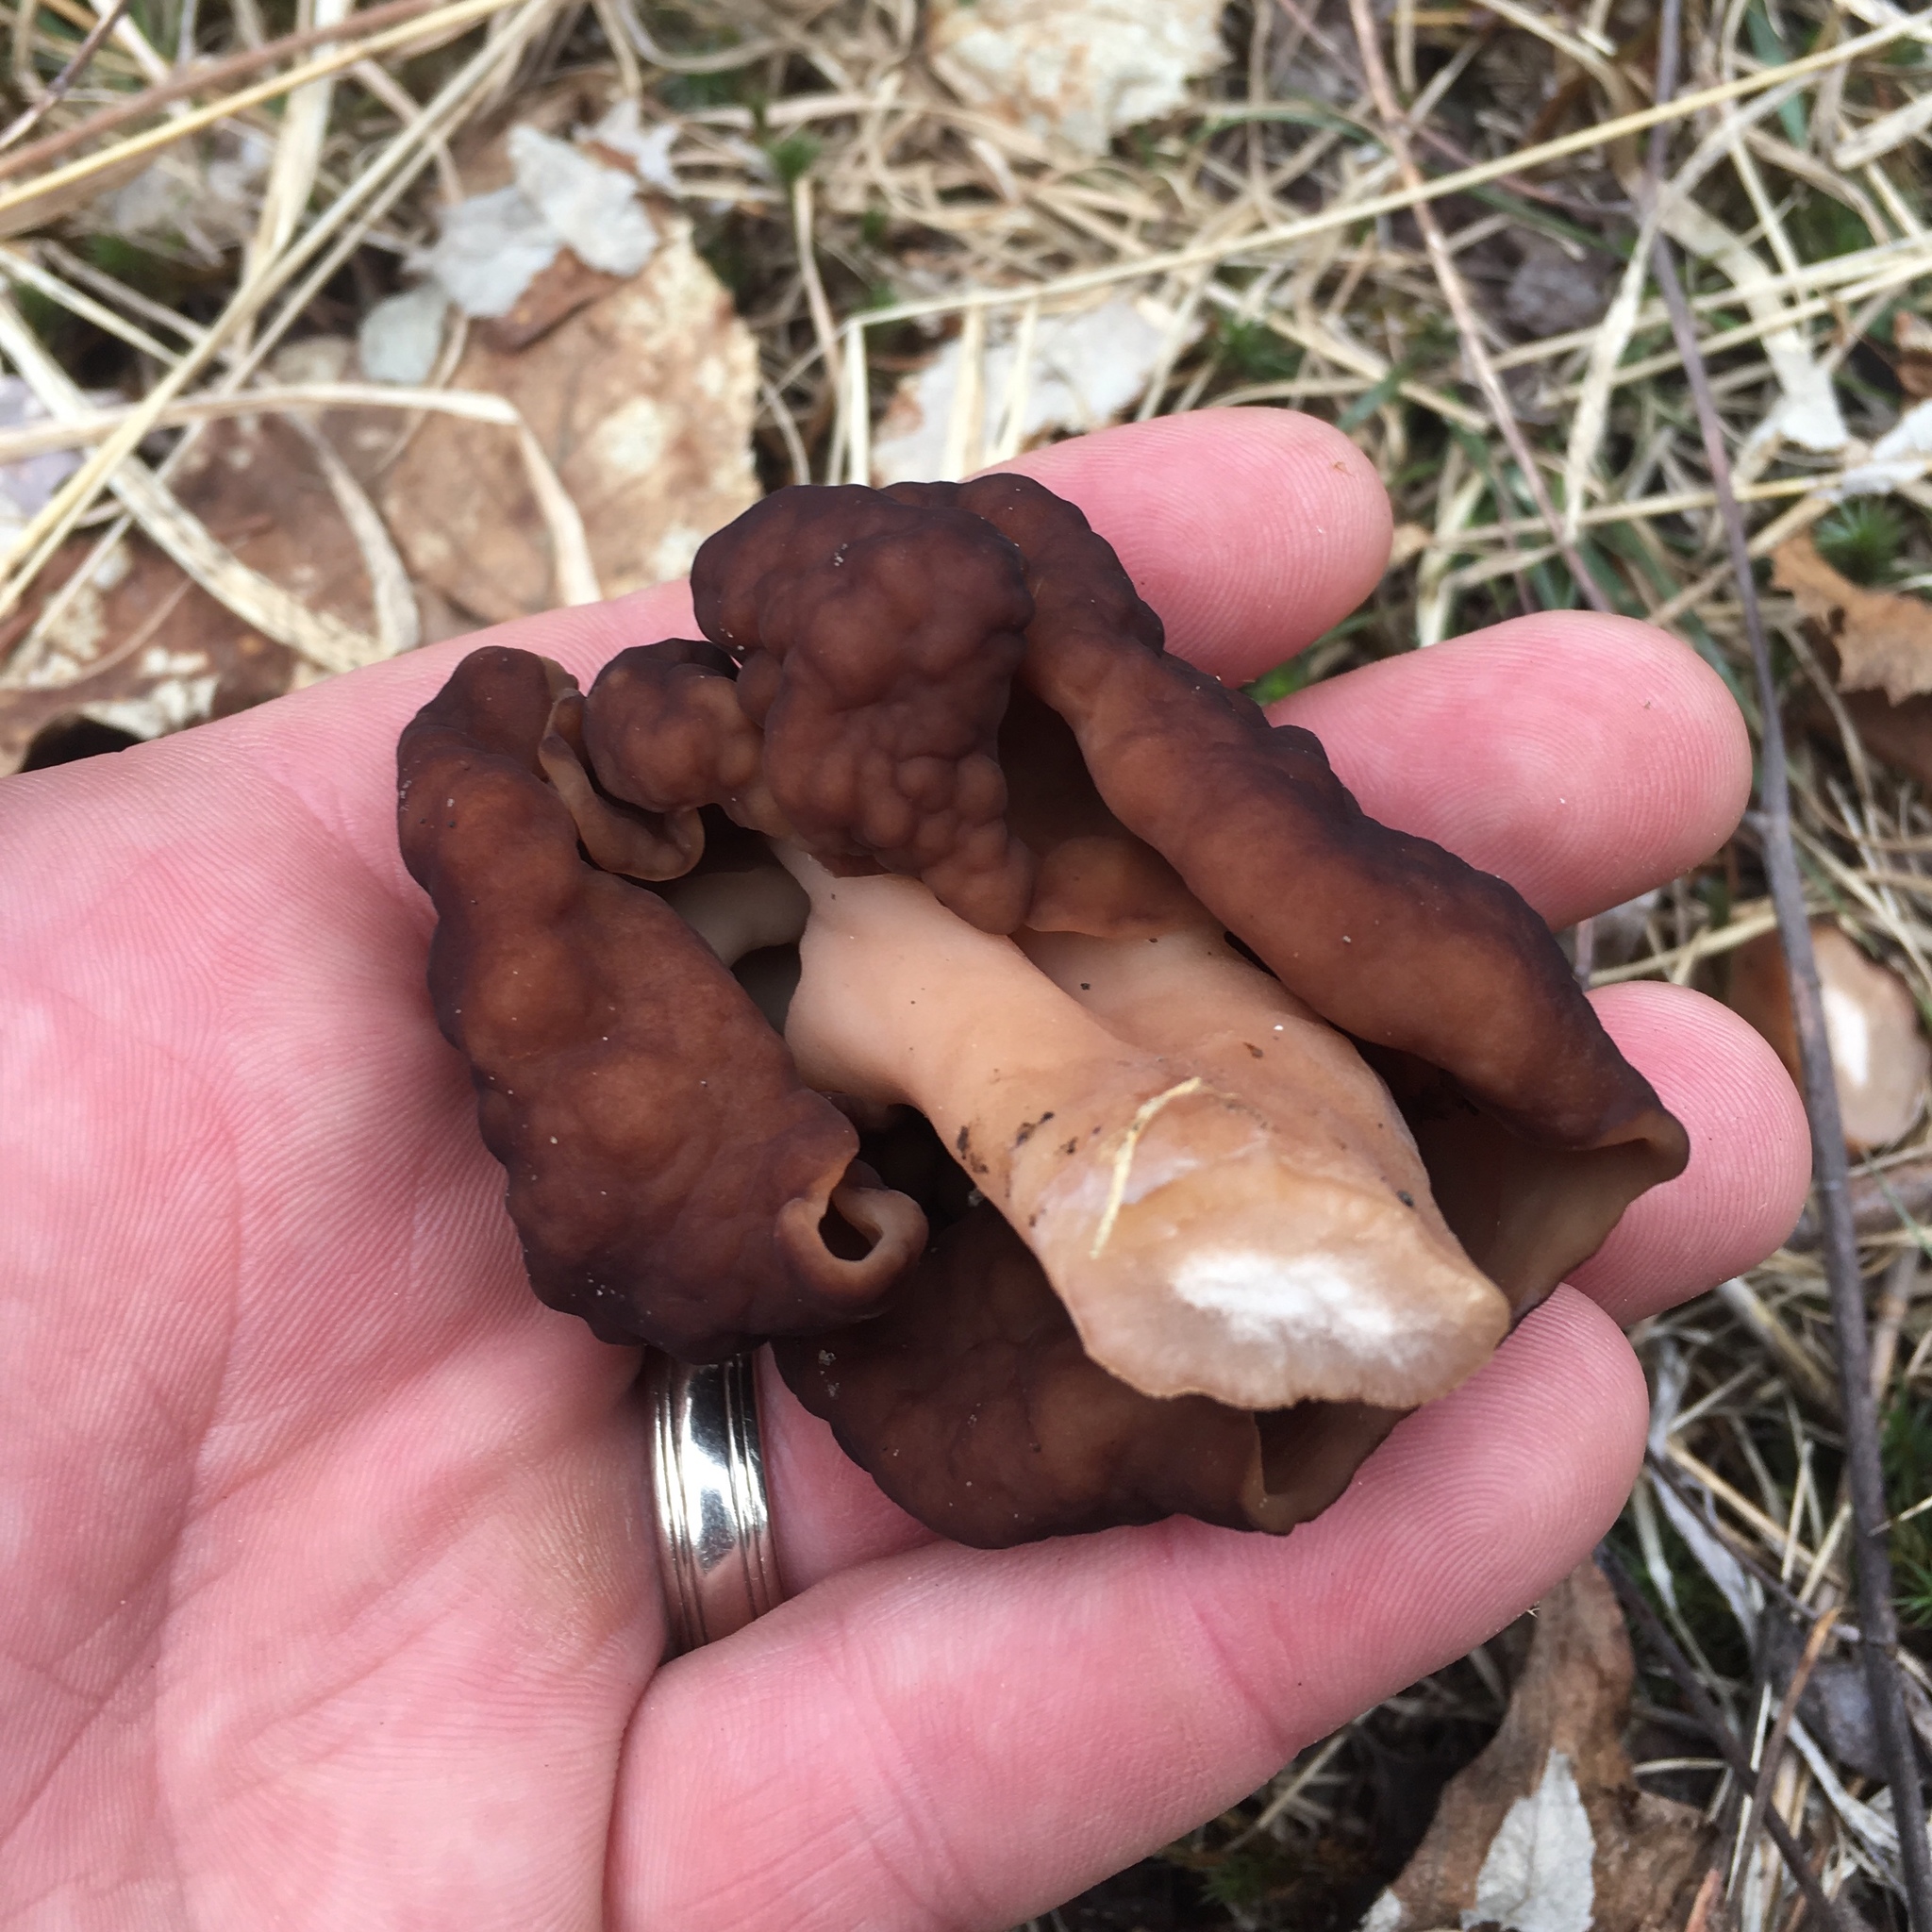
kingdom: Fungi
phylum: Ascomycota
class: Pezizomycetes
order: Pezizales
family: Discinaceae
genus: Gyromitra
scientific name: Gyromitra esculenta
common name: False morel
